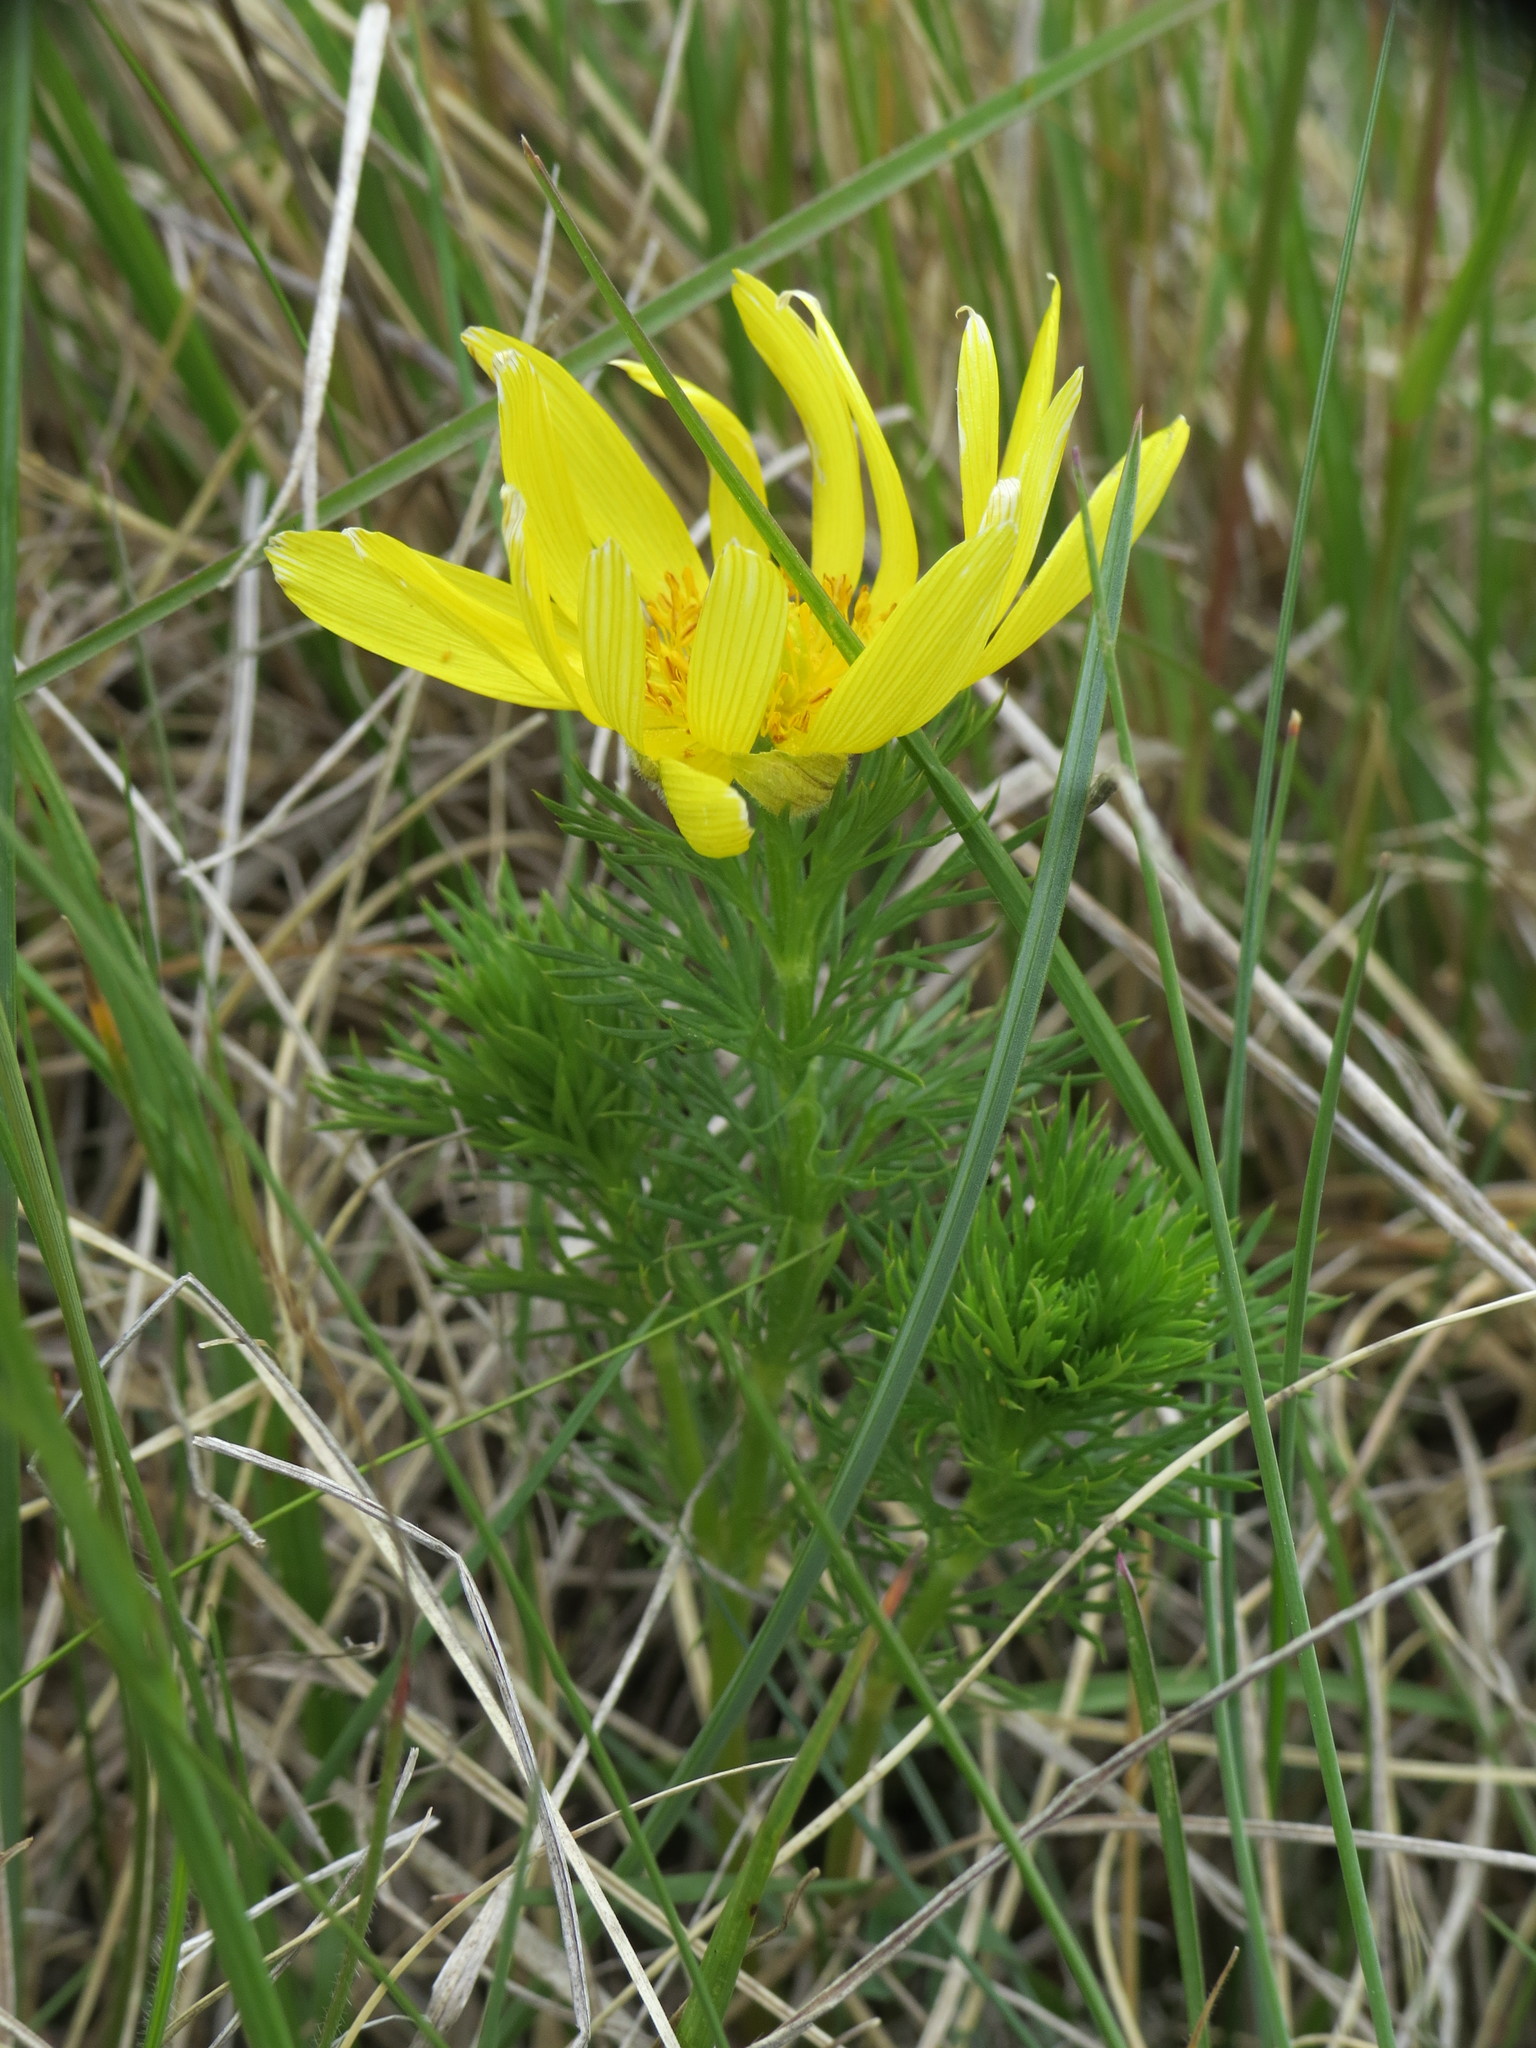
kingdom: Plantae
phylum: Tracheophyta
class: Magnoliopsida
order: Ranunculales
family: Ranunculaceae
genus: Adonis
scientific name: Adonis vernalis
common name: Yellow pheasants-eye
